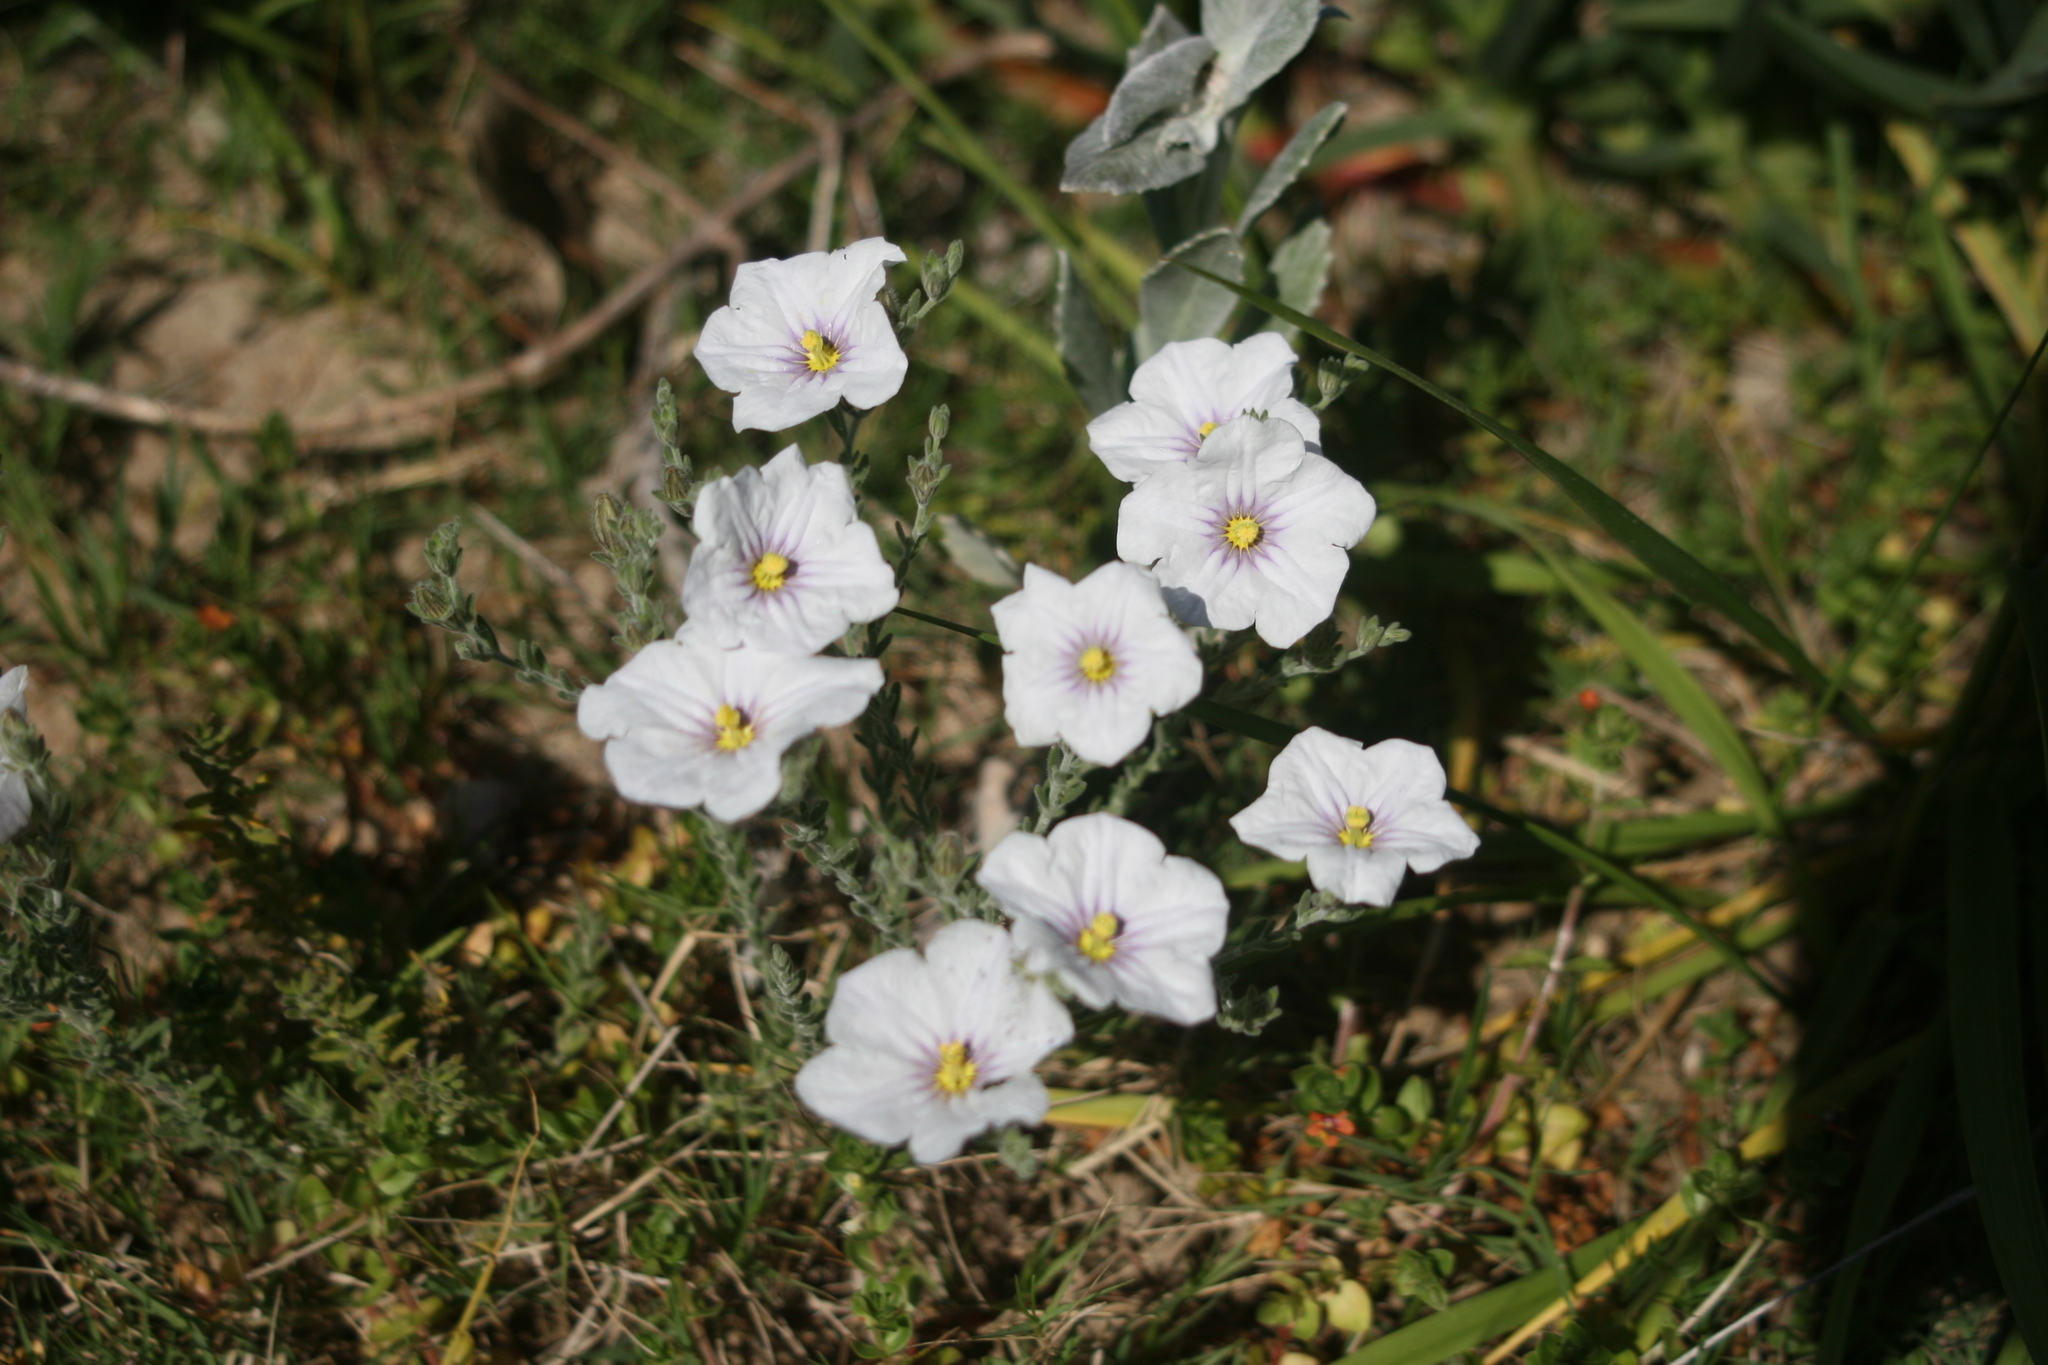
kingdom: Plantae
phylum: Tracheophyta
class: Magnoliopsida
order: Solanales
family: Solanaceae
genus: Nierembergia
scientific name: Nierembergia ericoides
